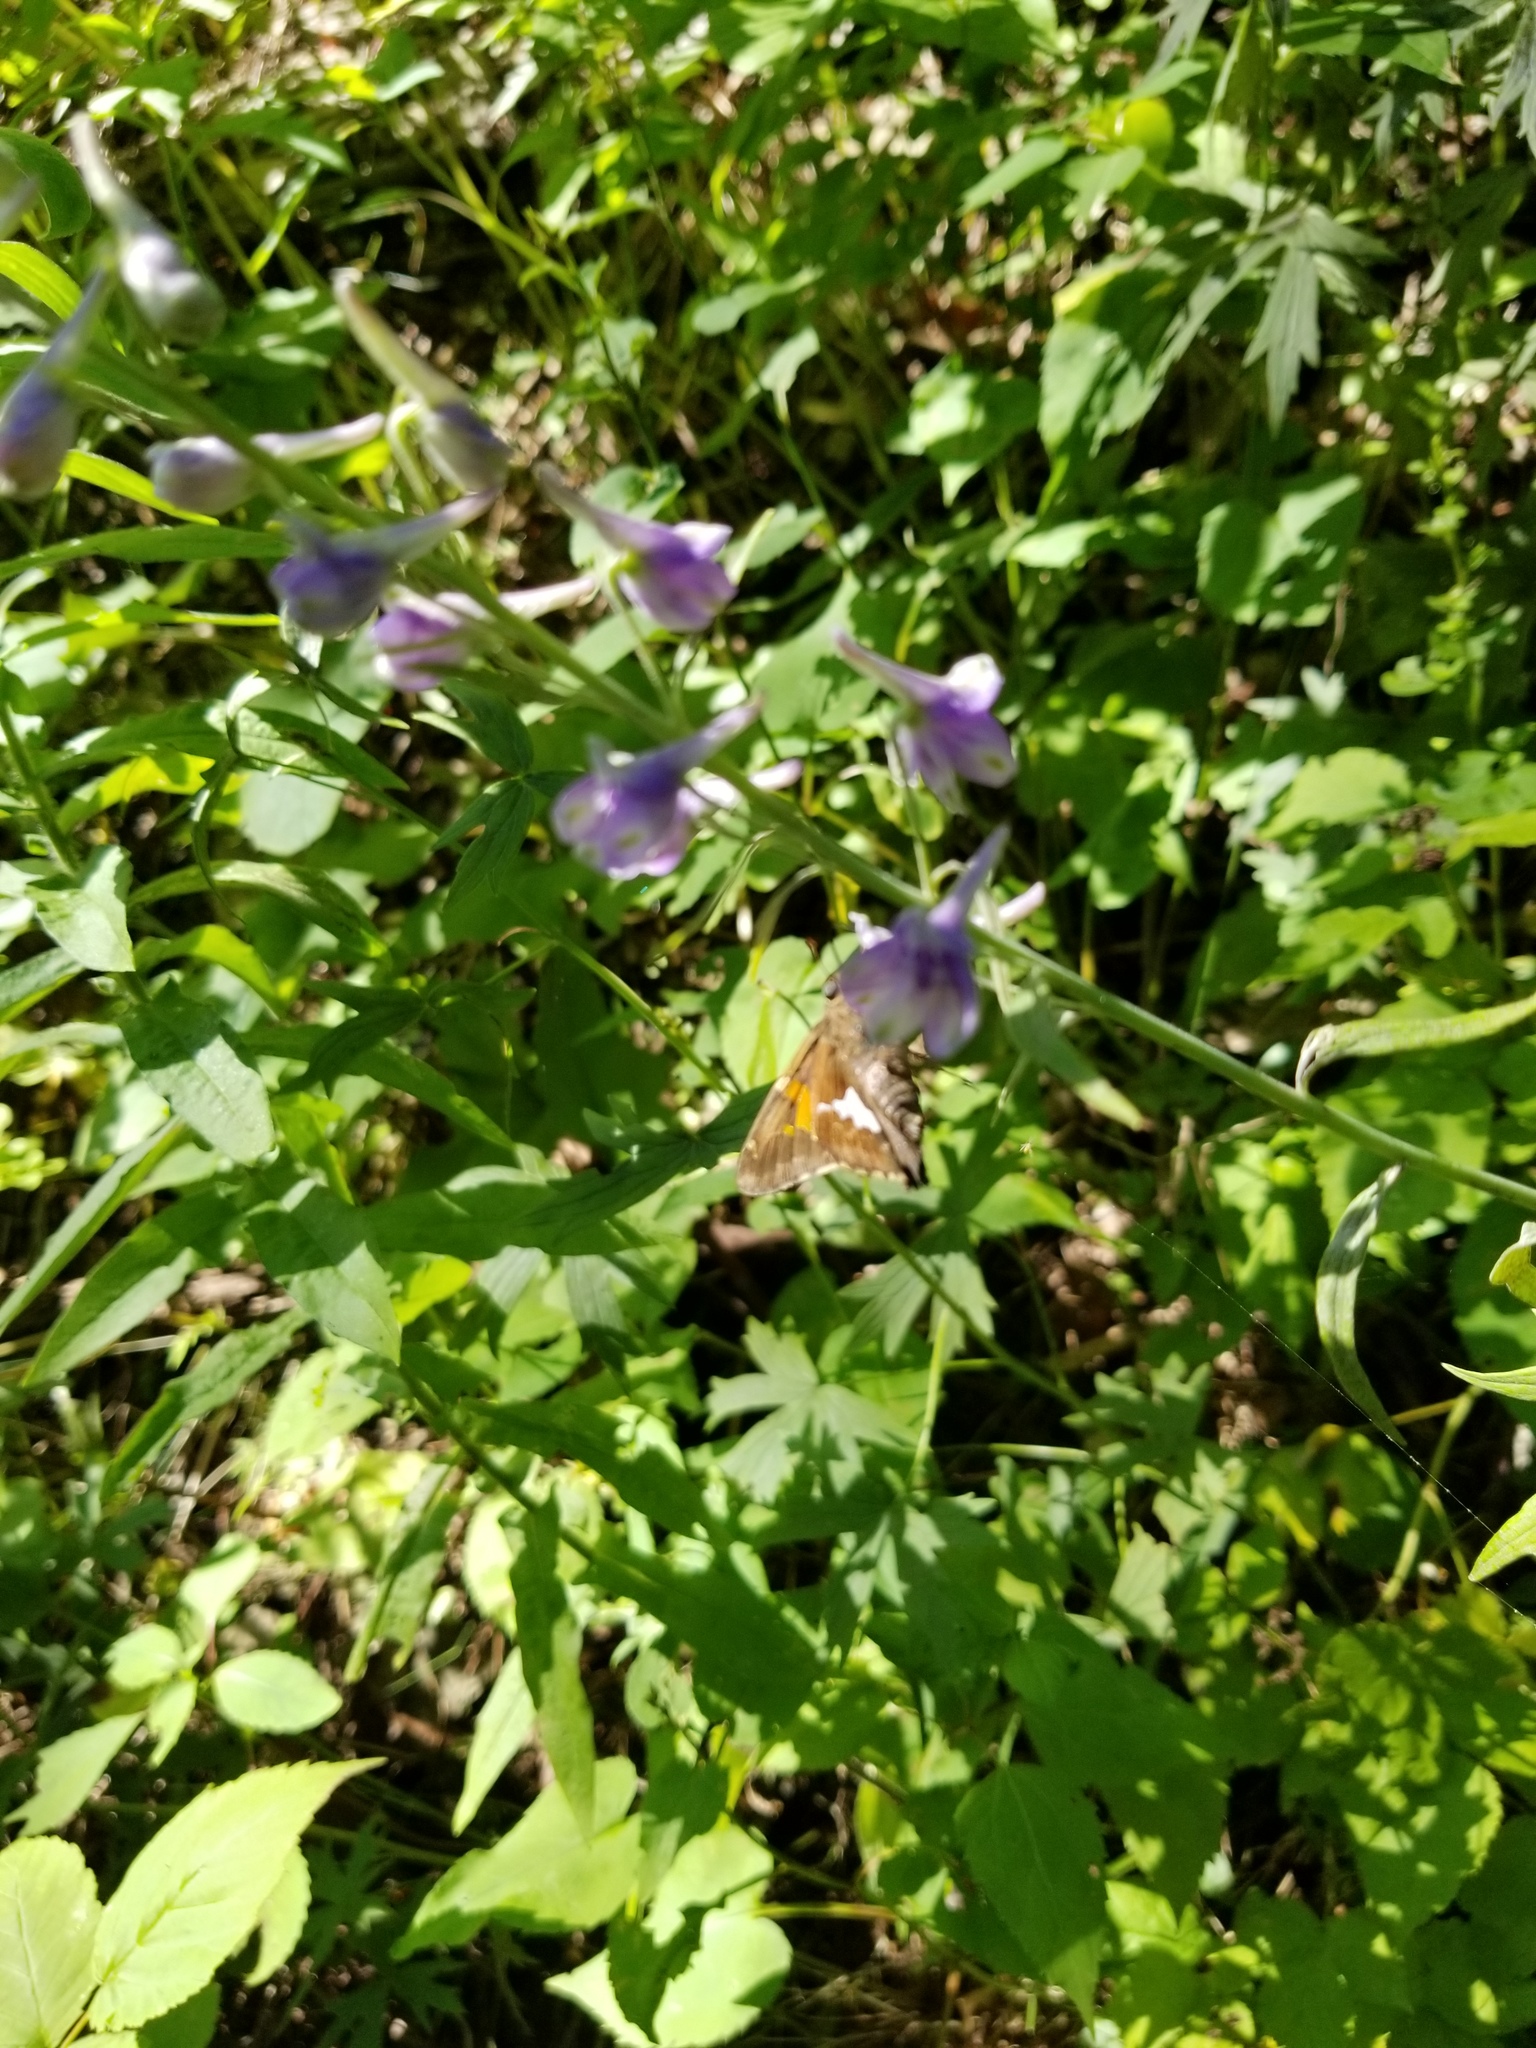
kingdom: Animalia
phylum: Arthropoda
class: Insecta
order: Lepidoptera
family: Hesperiidae
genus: Epargyreus
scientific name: Epargyreus clarus
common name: Silver-spotted skipper
